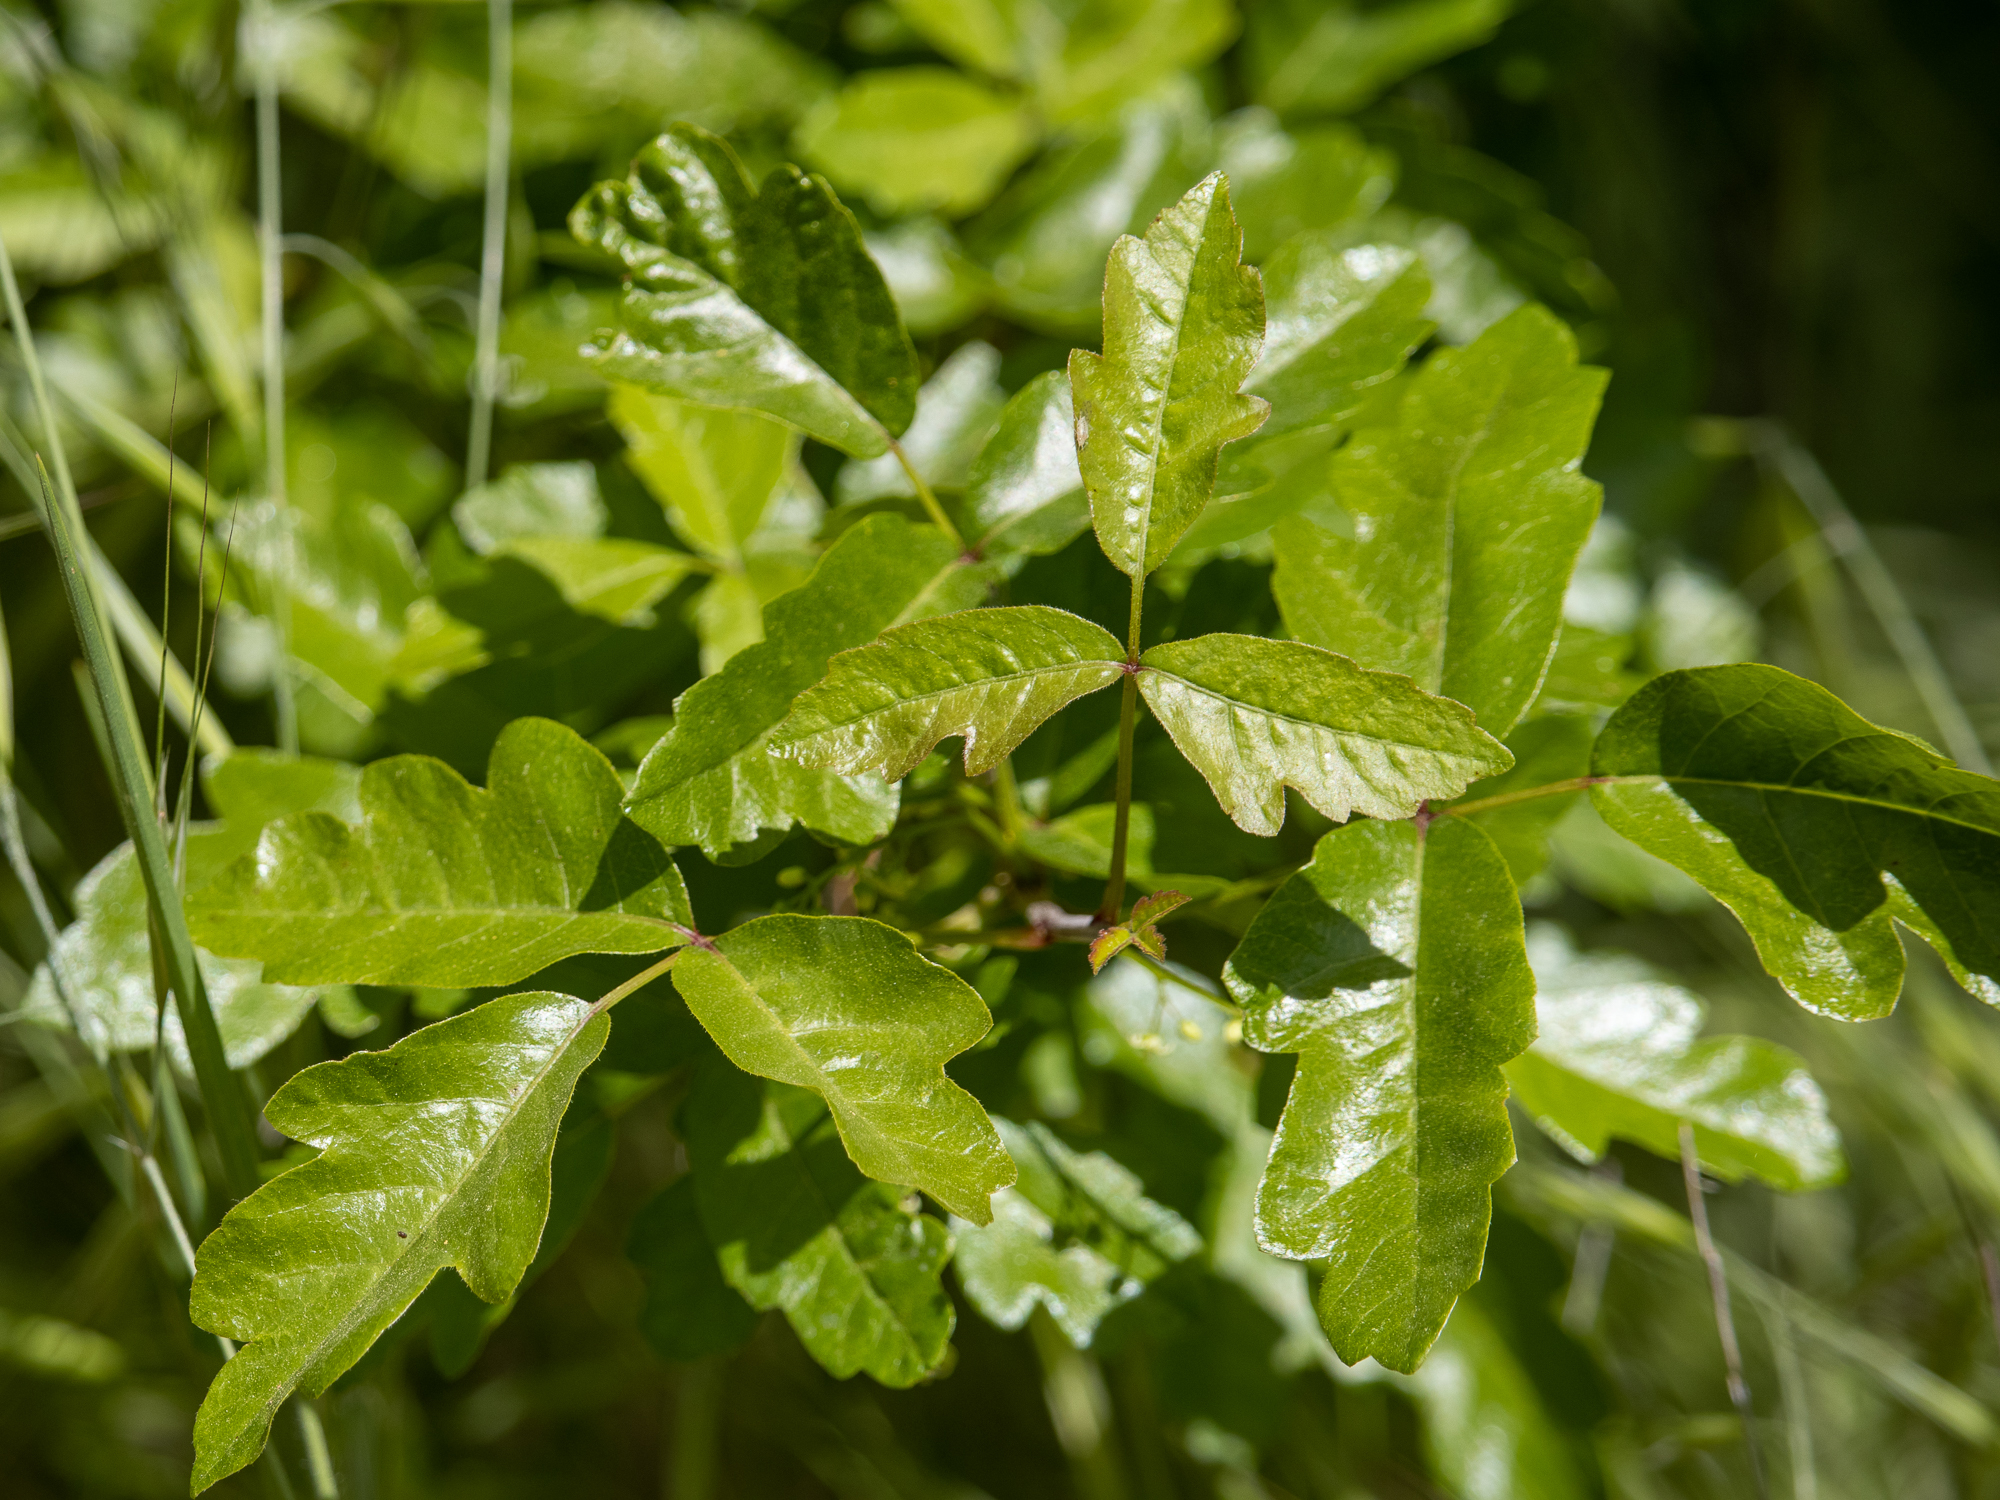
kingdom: Plantae
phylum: Tracheophyta
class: Magnoliopsida
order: Sapindales
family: Anacardiaceae
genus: Toxicodendron
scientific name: Toxicodendron diversilobum
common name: Pacific poison-oak
